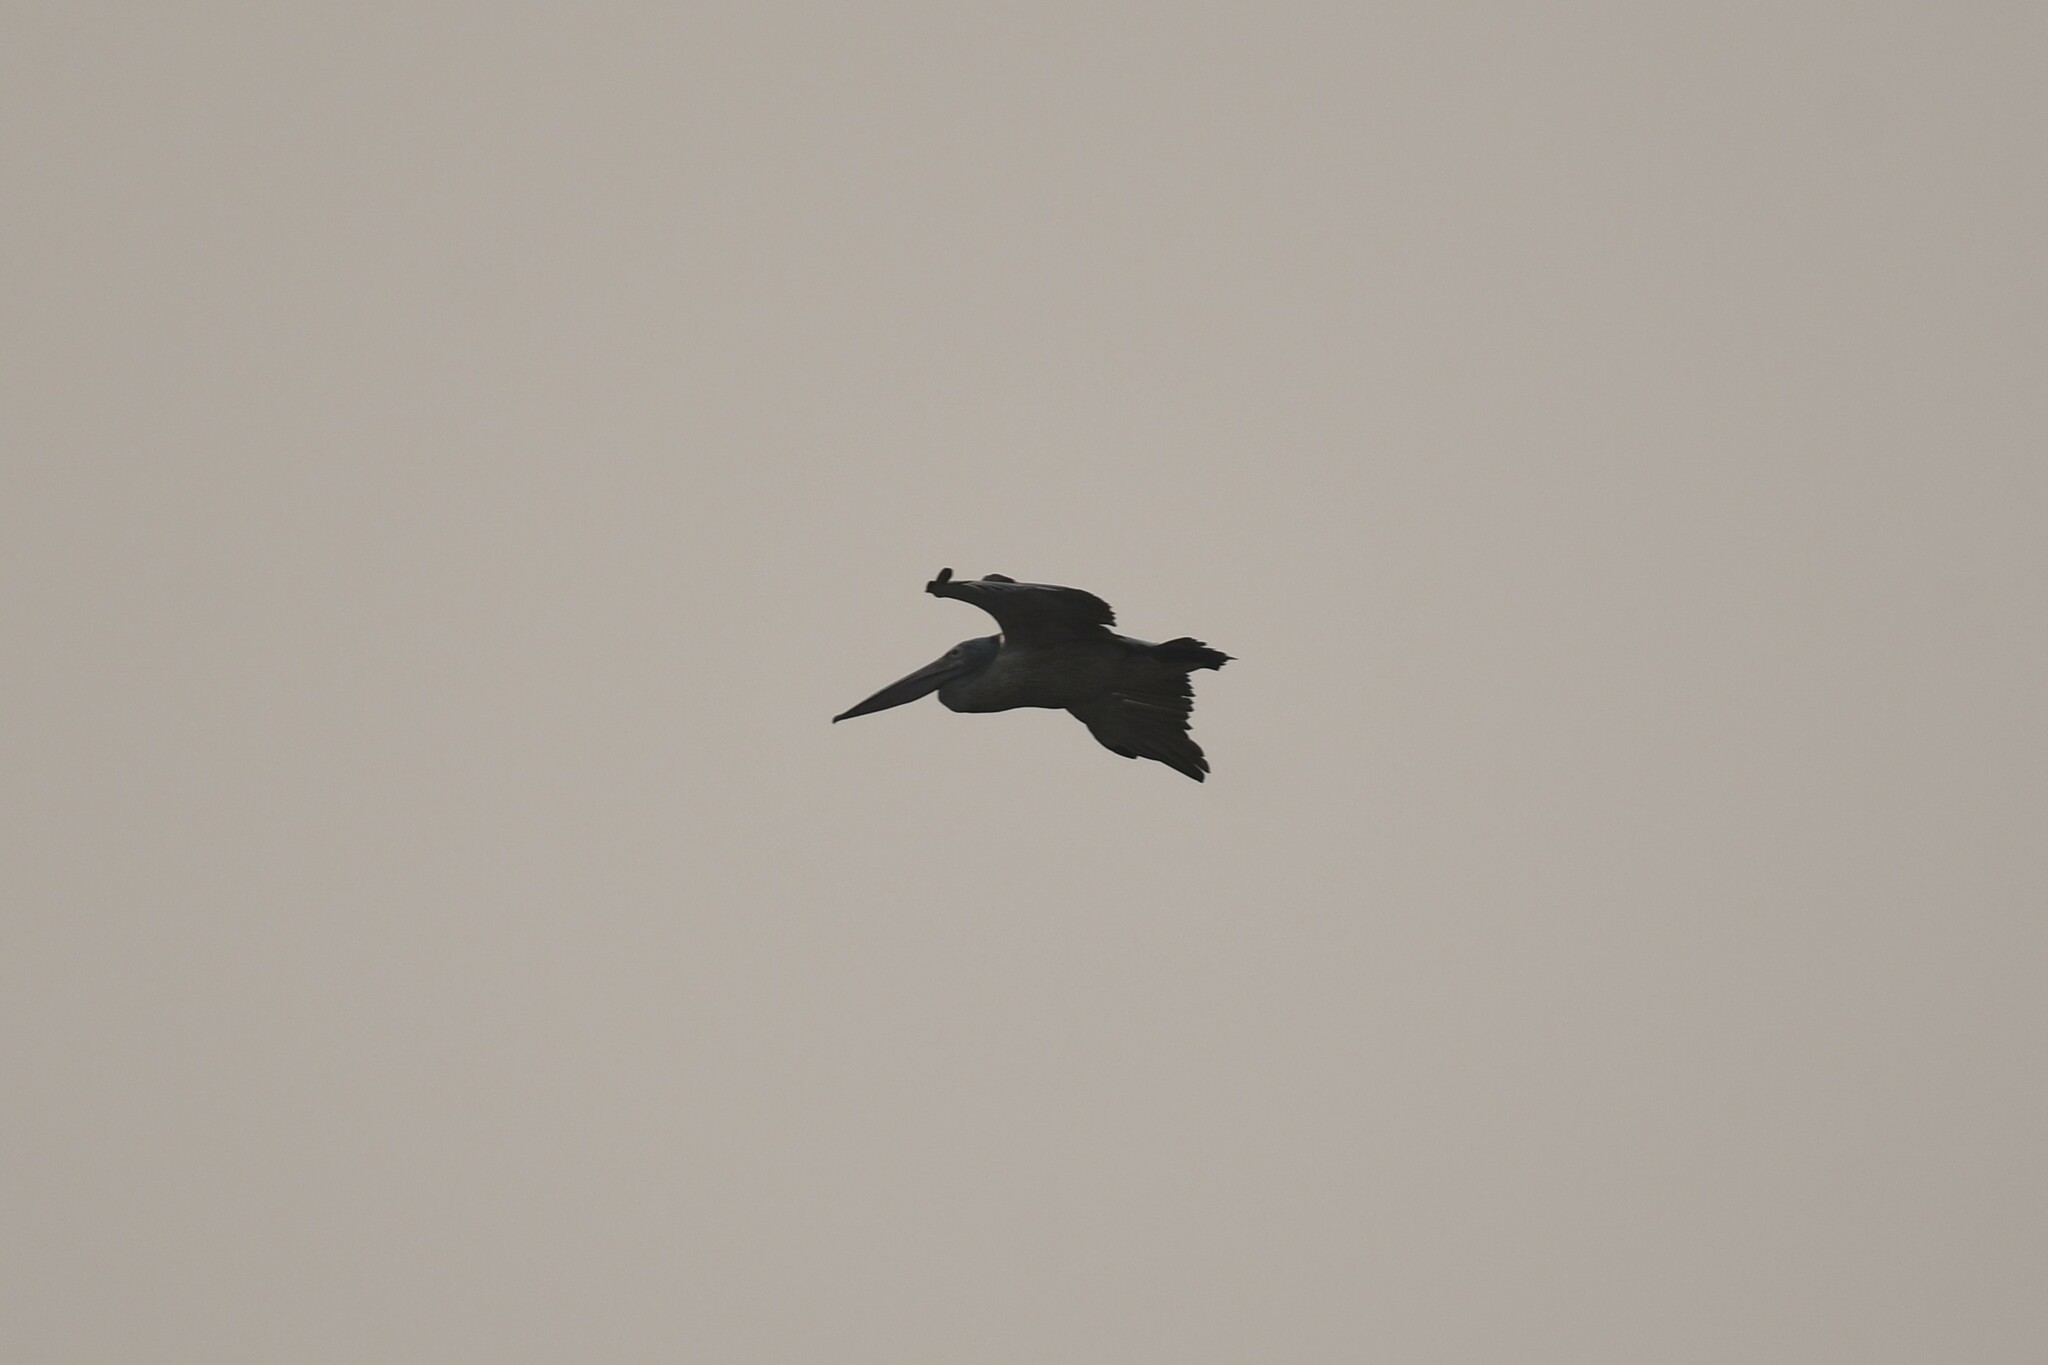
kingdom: Animalia
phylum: Chordata
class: Aves
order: Pelecaniformes
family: Pelecanidae
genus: Pelecanus
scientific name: Pelecanus philippensis
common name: Spot-billed pelican
